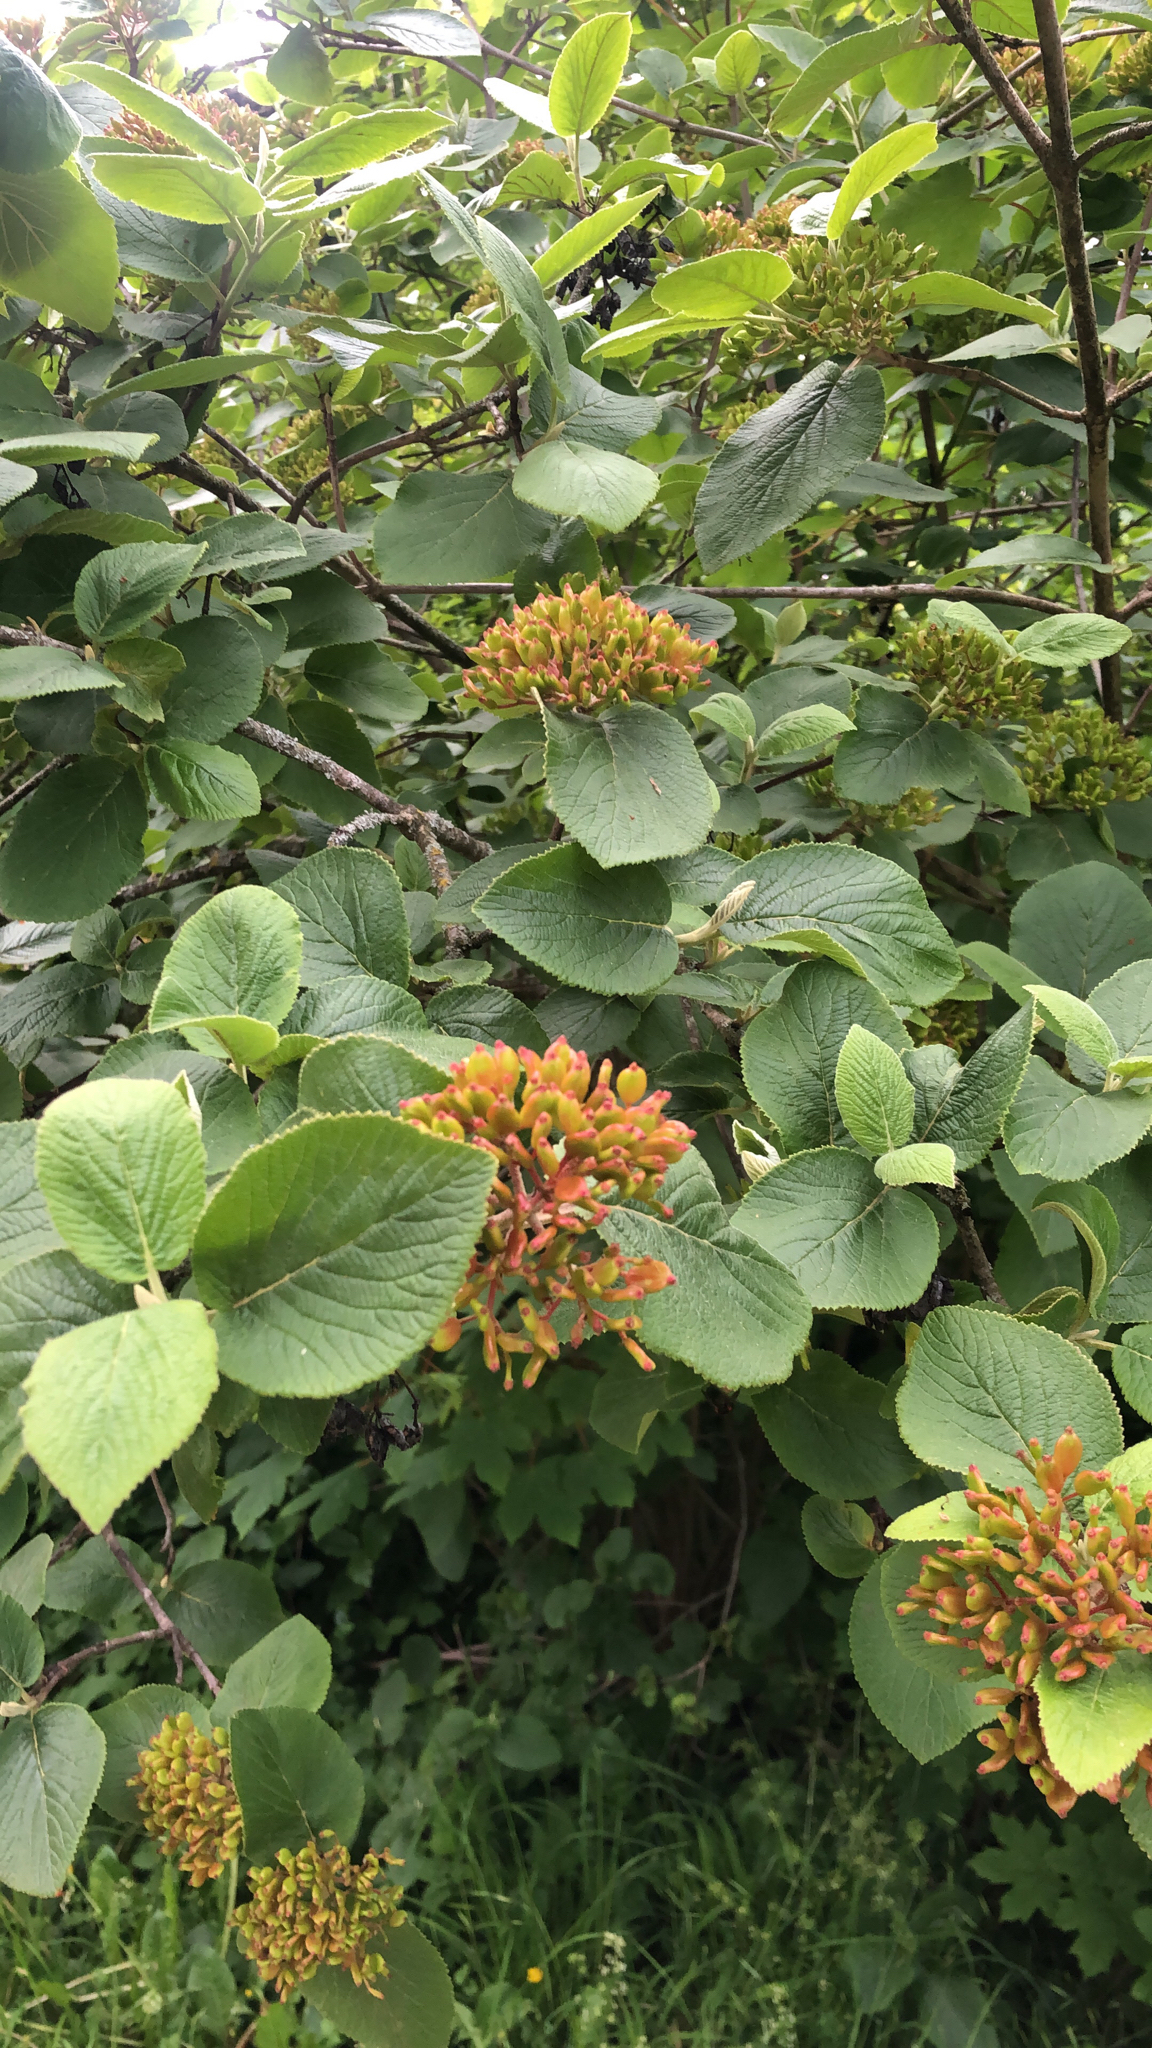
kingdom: Plantae
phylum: Tracheophyta
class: Magnoliopsida
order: Dipsacales
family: Viburnaceae
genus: Viburnum
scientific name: Viburnum lantana
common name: Wayfaring tree
